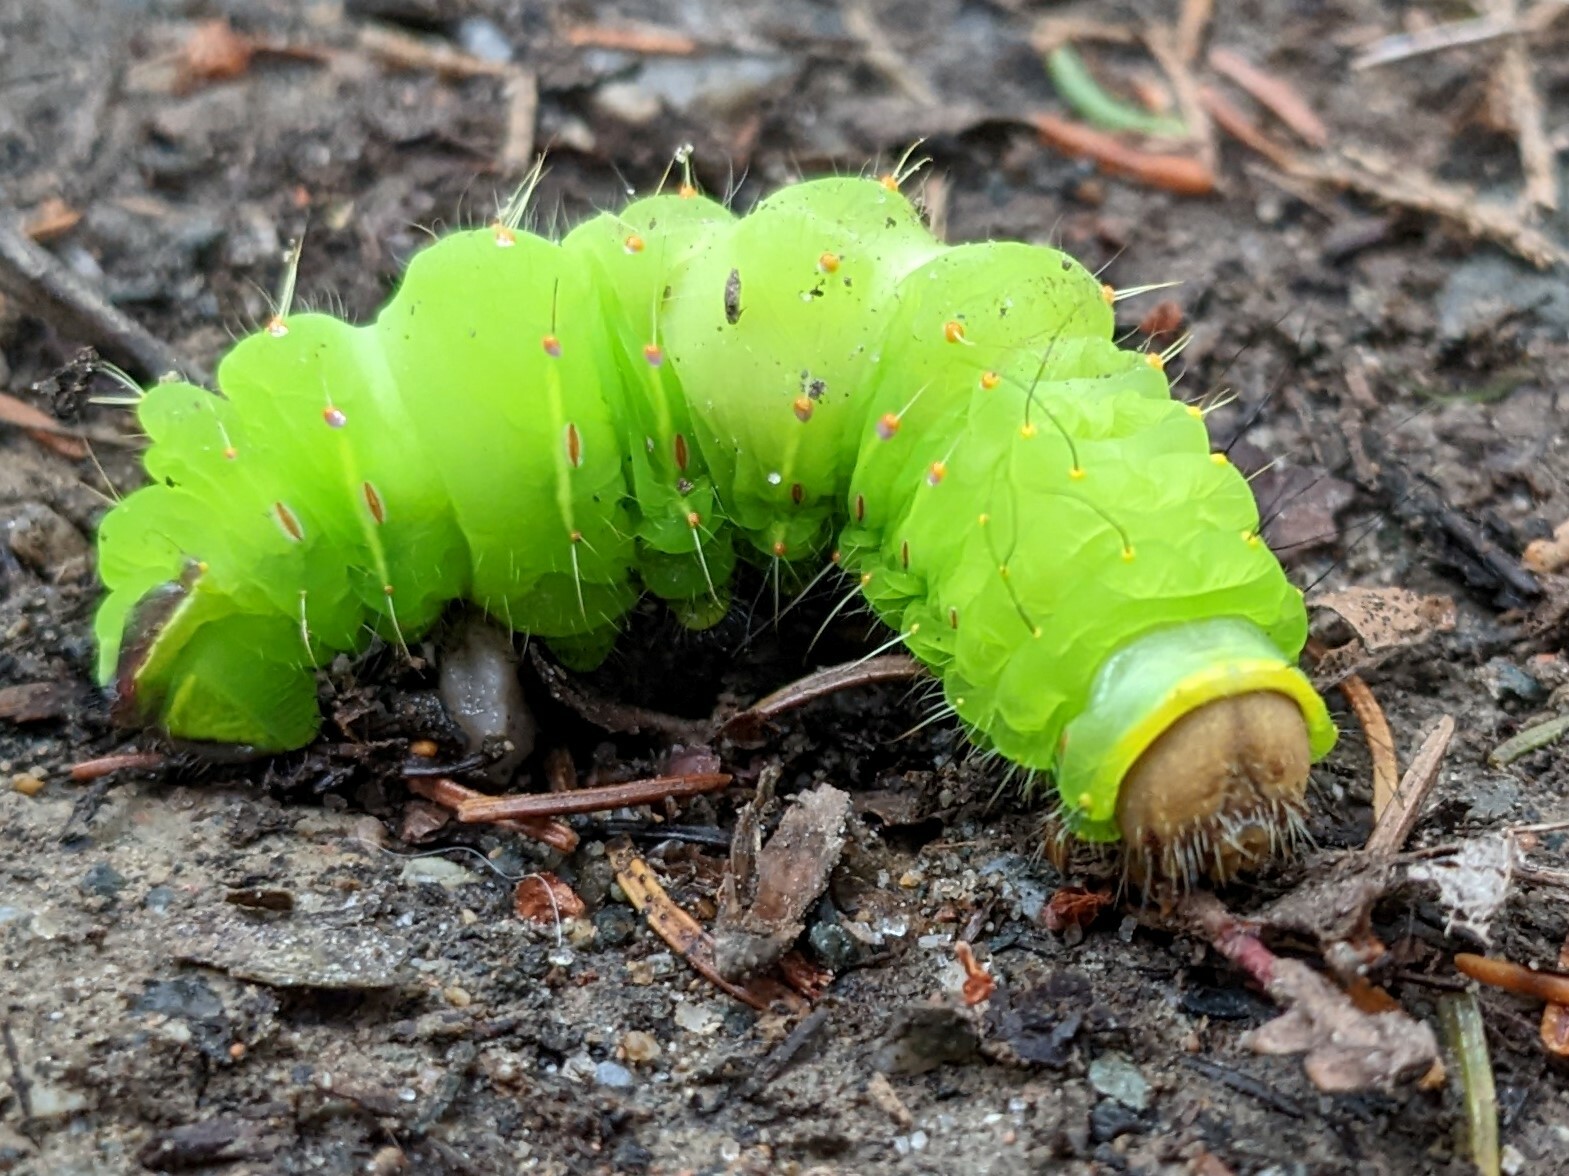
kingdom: Animalia
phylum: Arthropoda
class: Insecta
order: Lepidoptera
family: Saturniidae
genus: Antheraea
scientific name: Antheraea polyphemus
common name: Polyphemus moth
